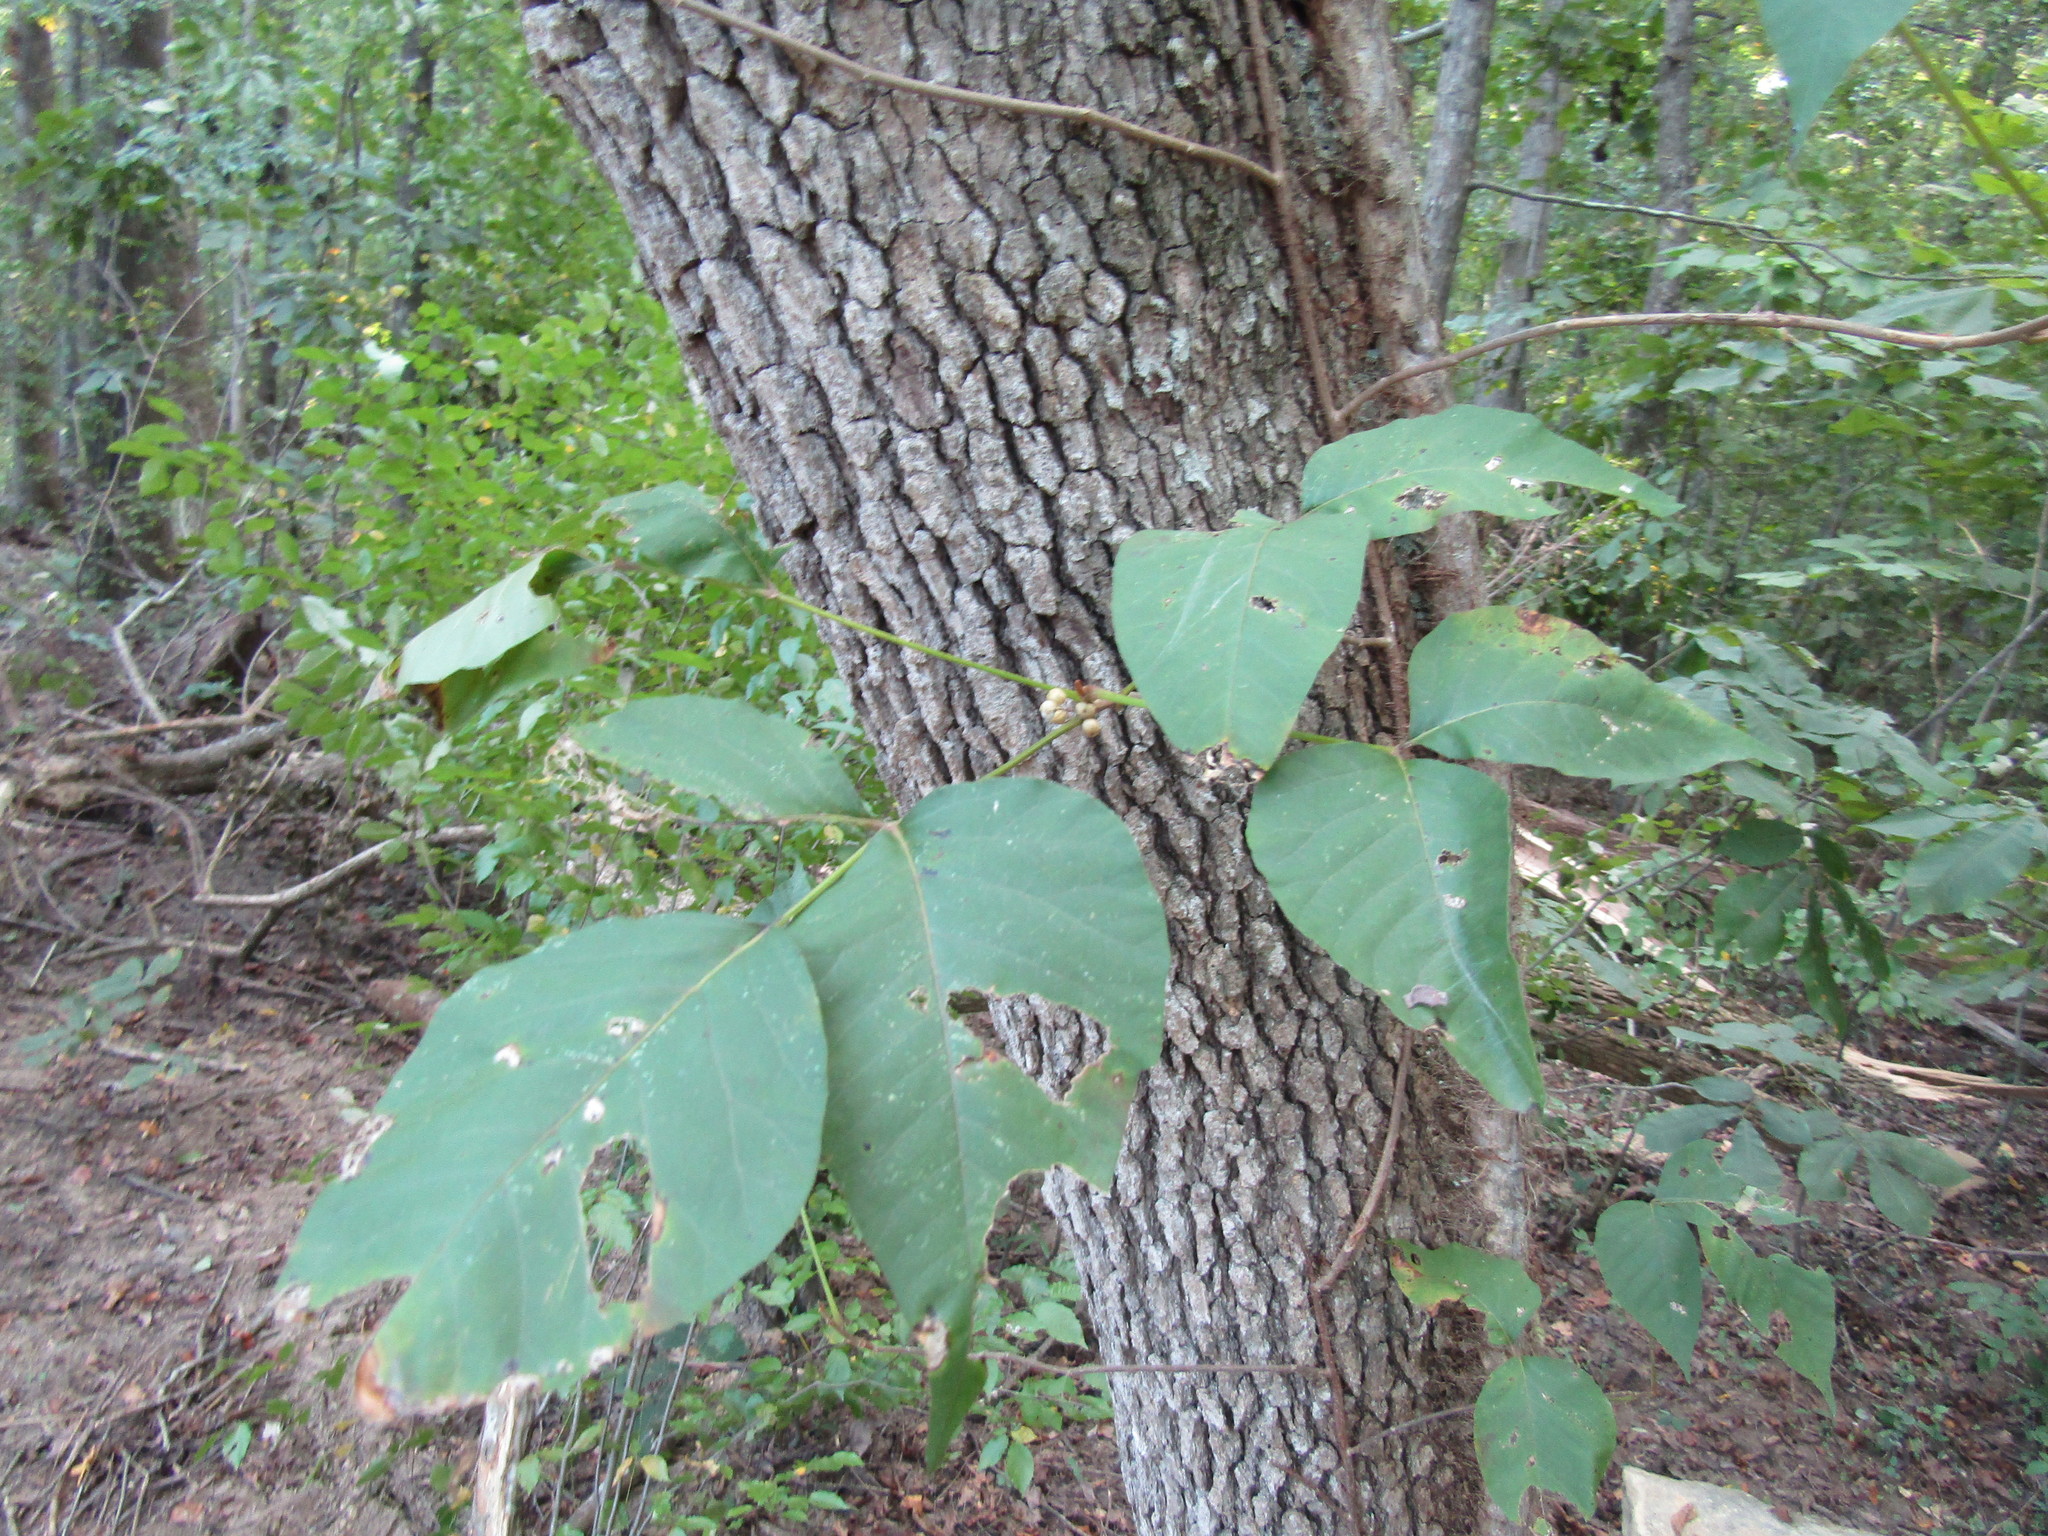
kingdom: Plantae
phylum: Tracheophyta
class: Magnoliopsida
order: Sapindales
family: Anacardiaceae
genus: Toxicodendron
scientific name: Toxicodendron radicans
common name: Poison ivy
